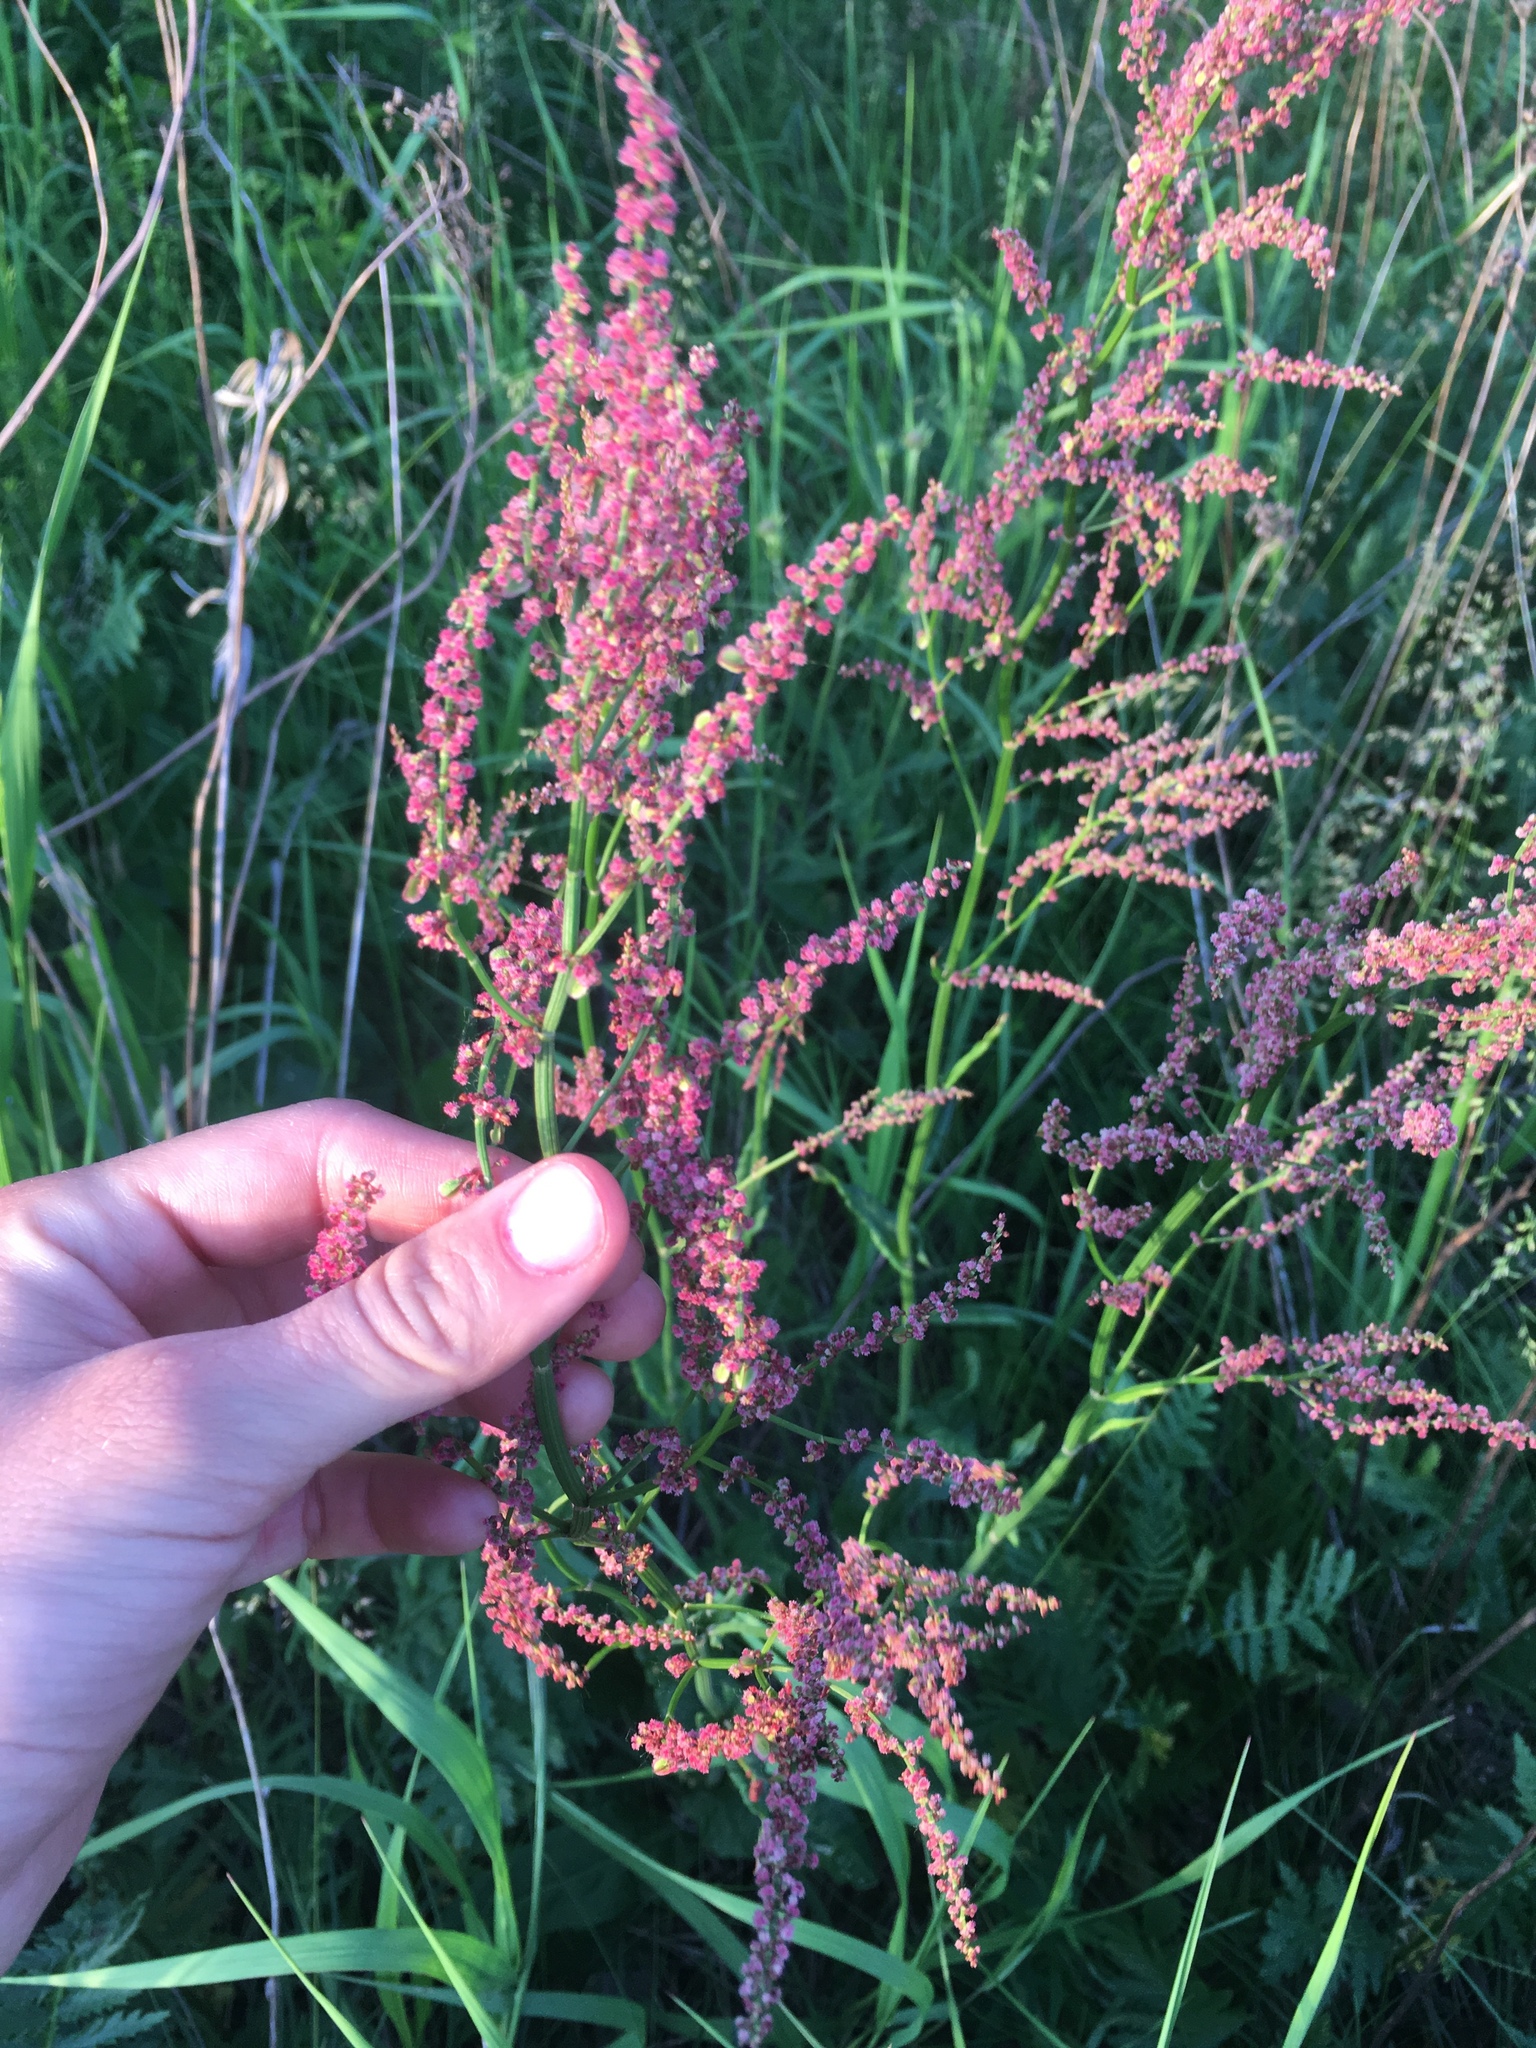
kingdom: Plantae
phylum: Tracheophyta
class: Magnoliopsida
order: Caryophyllales
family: Polygonaceae
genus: Rumex
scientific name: Rumex acetosella
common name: Common sheep sorrel
